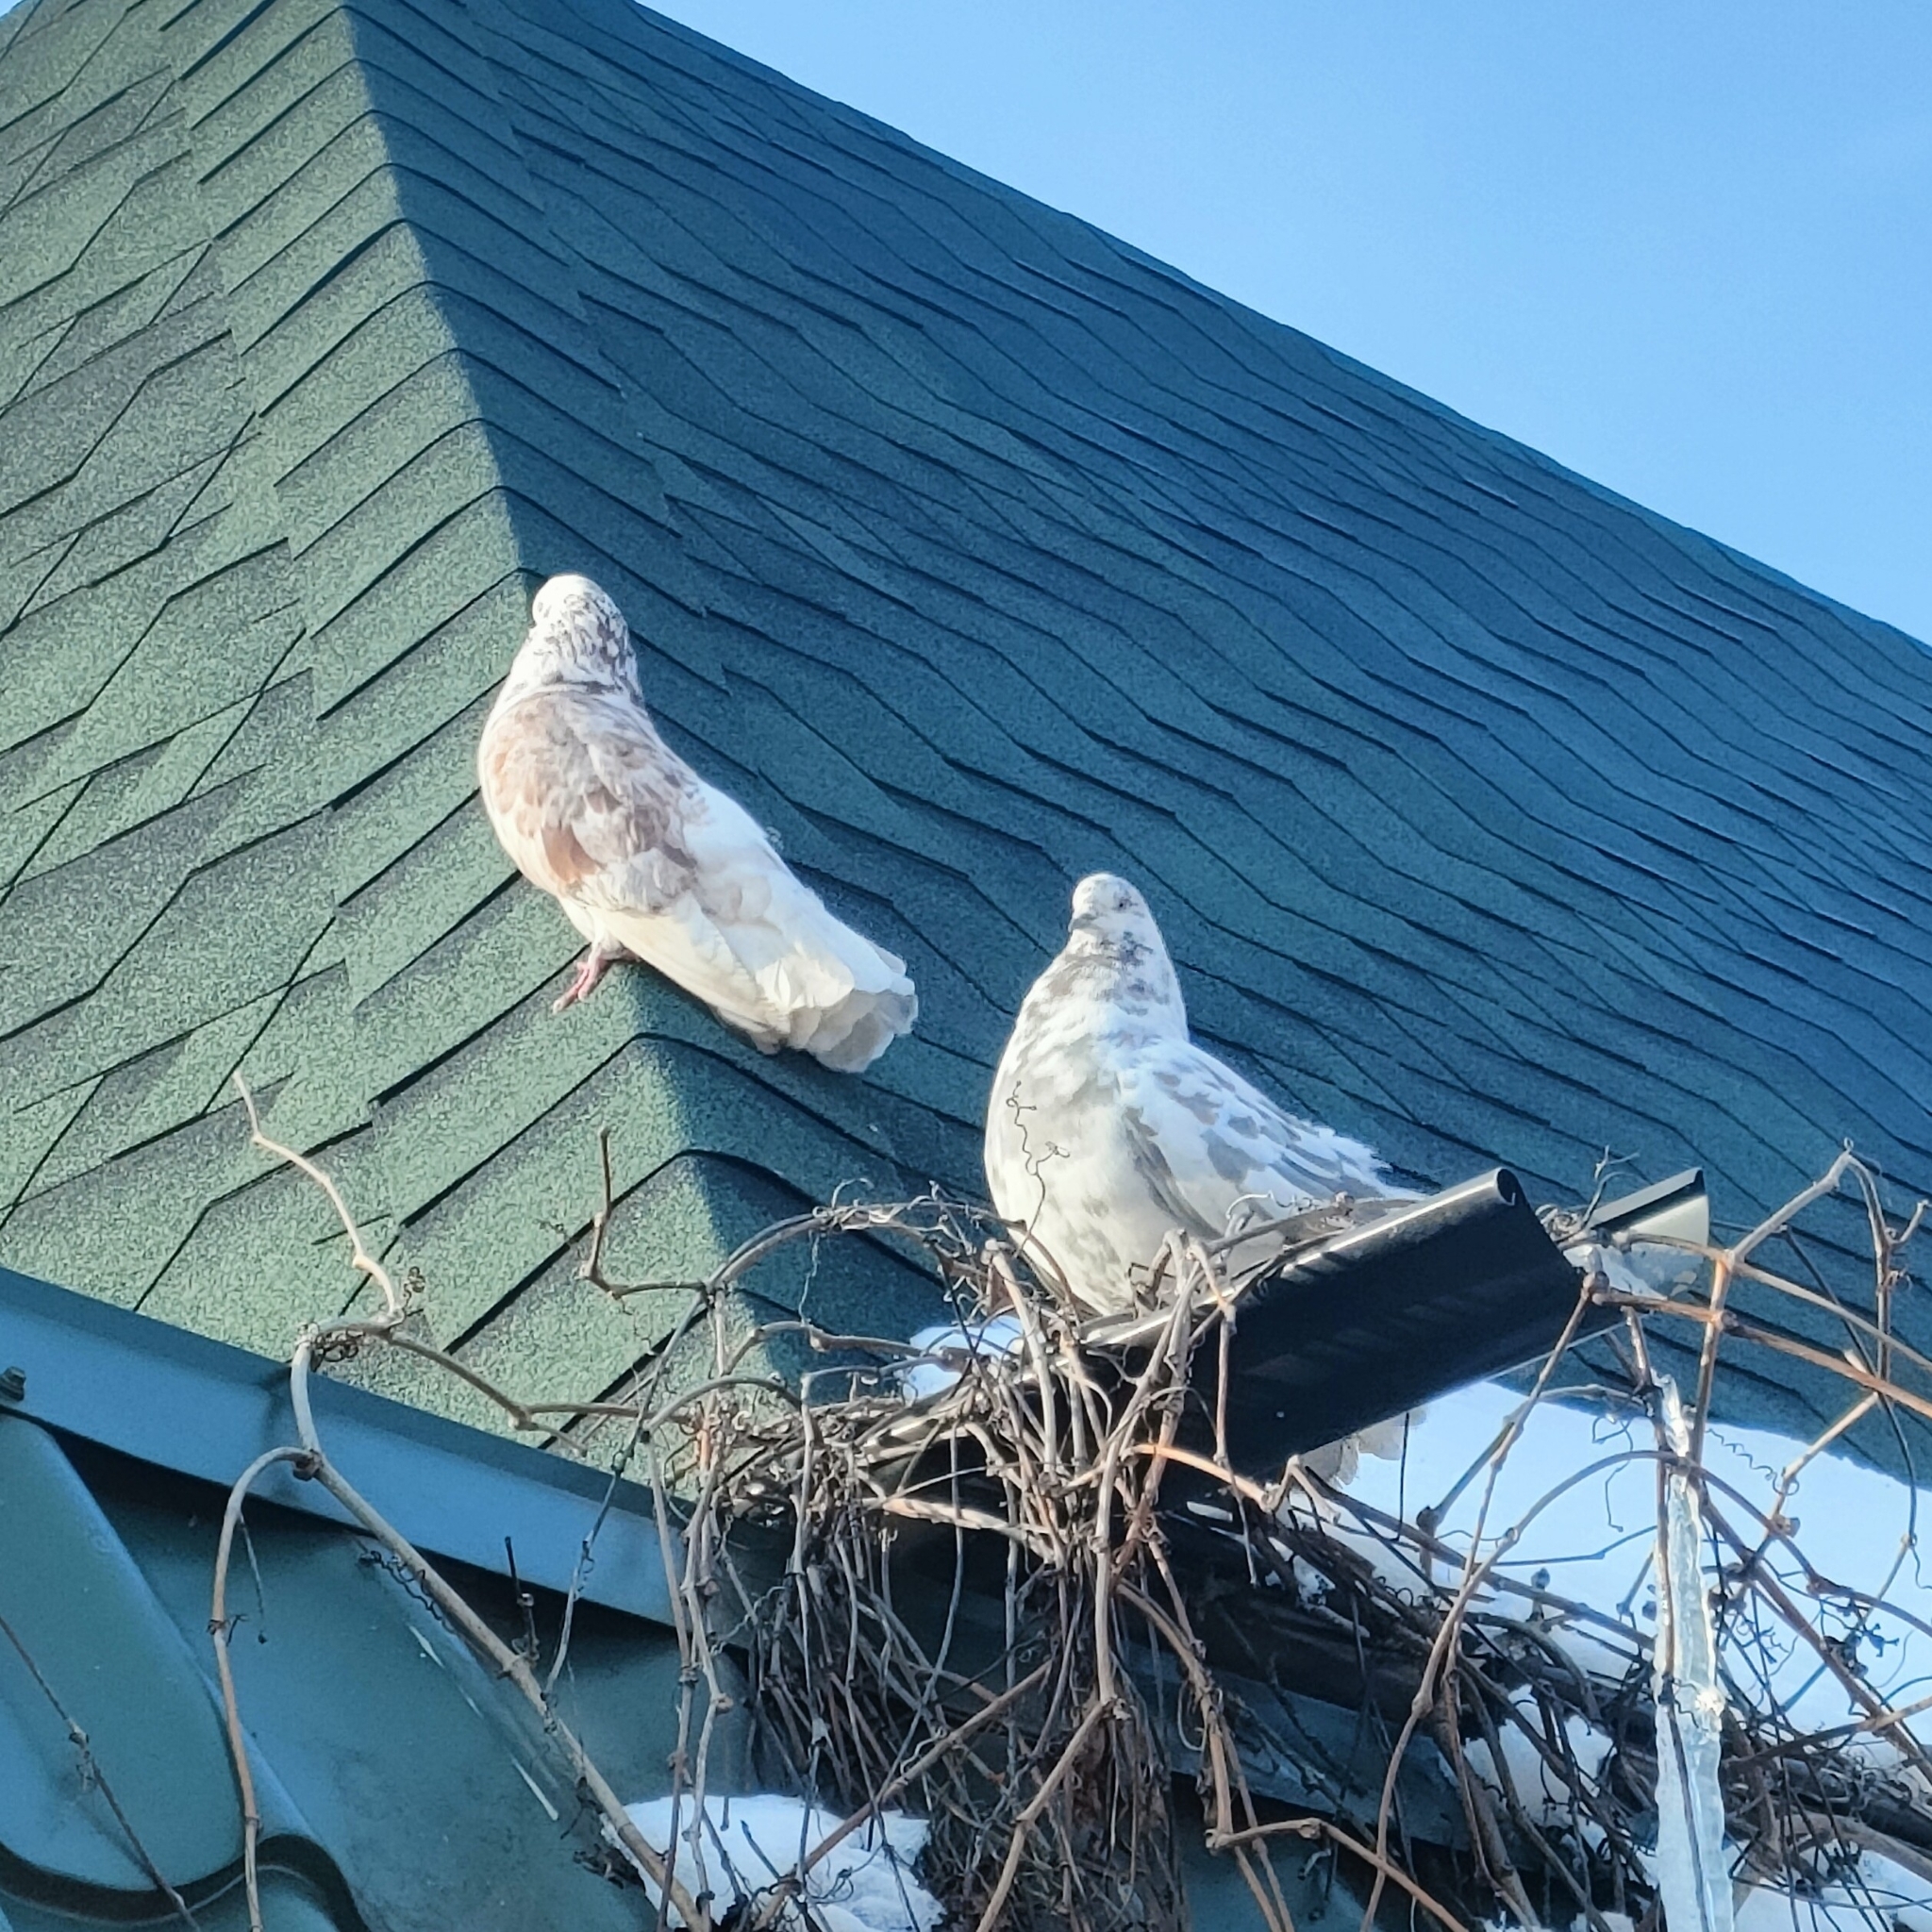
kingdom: Animalia
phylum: Chordata
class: Aves
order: Columbiformes
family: Columbidae
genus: Columba
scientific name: Columba livia
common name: Rock pigeon
